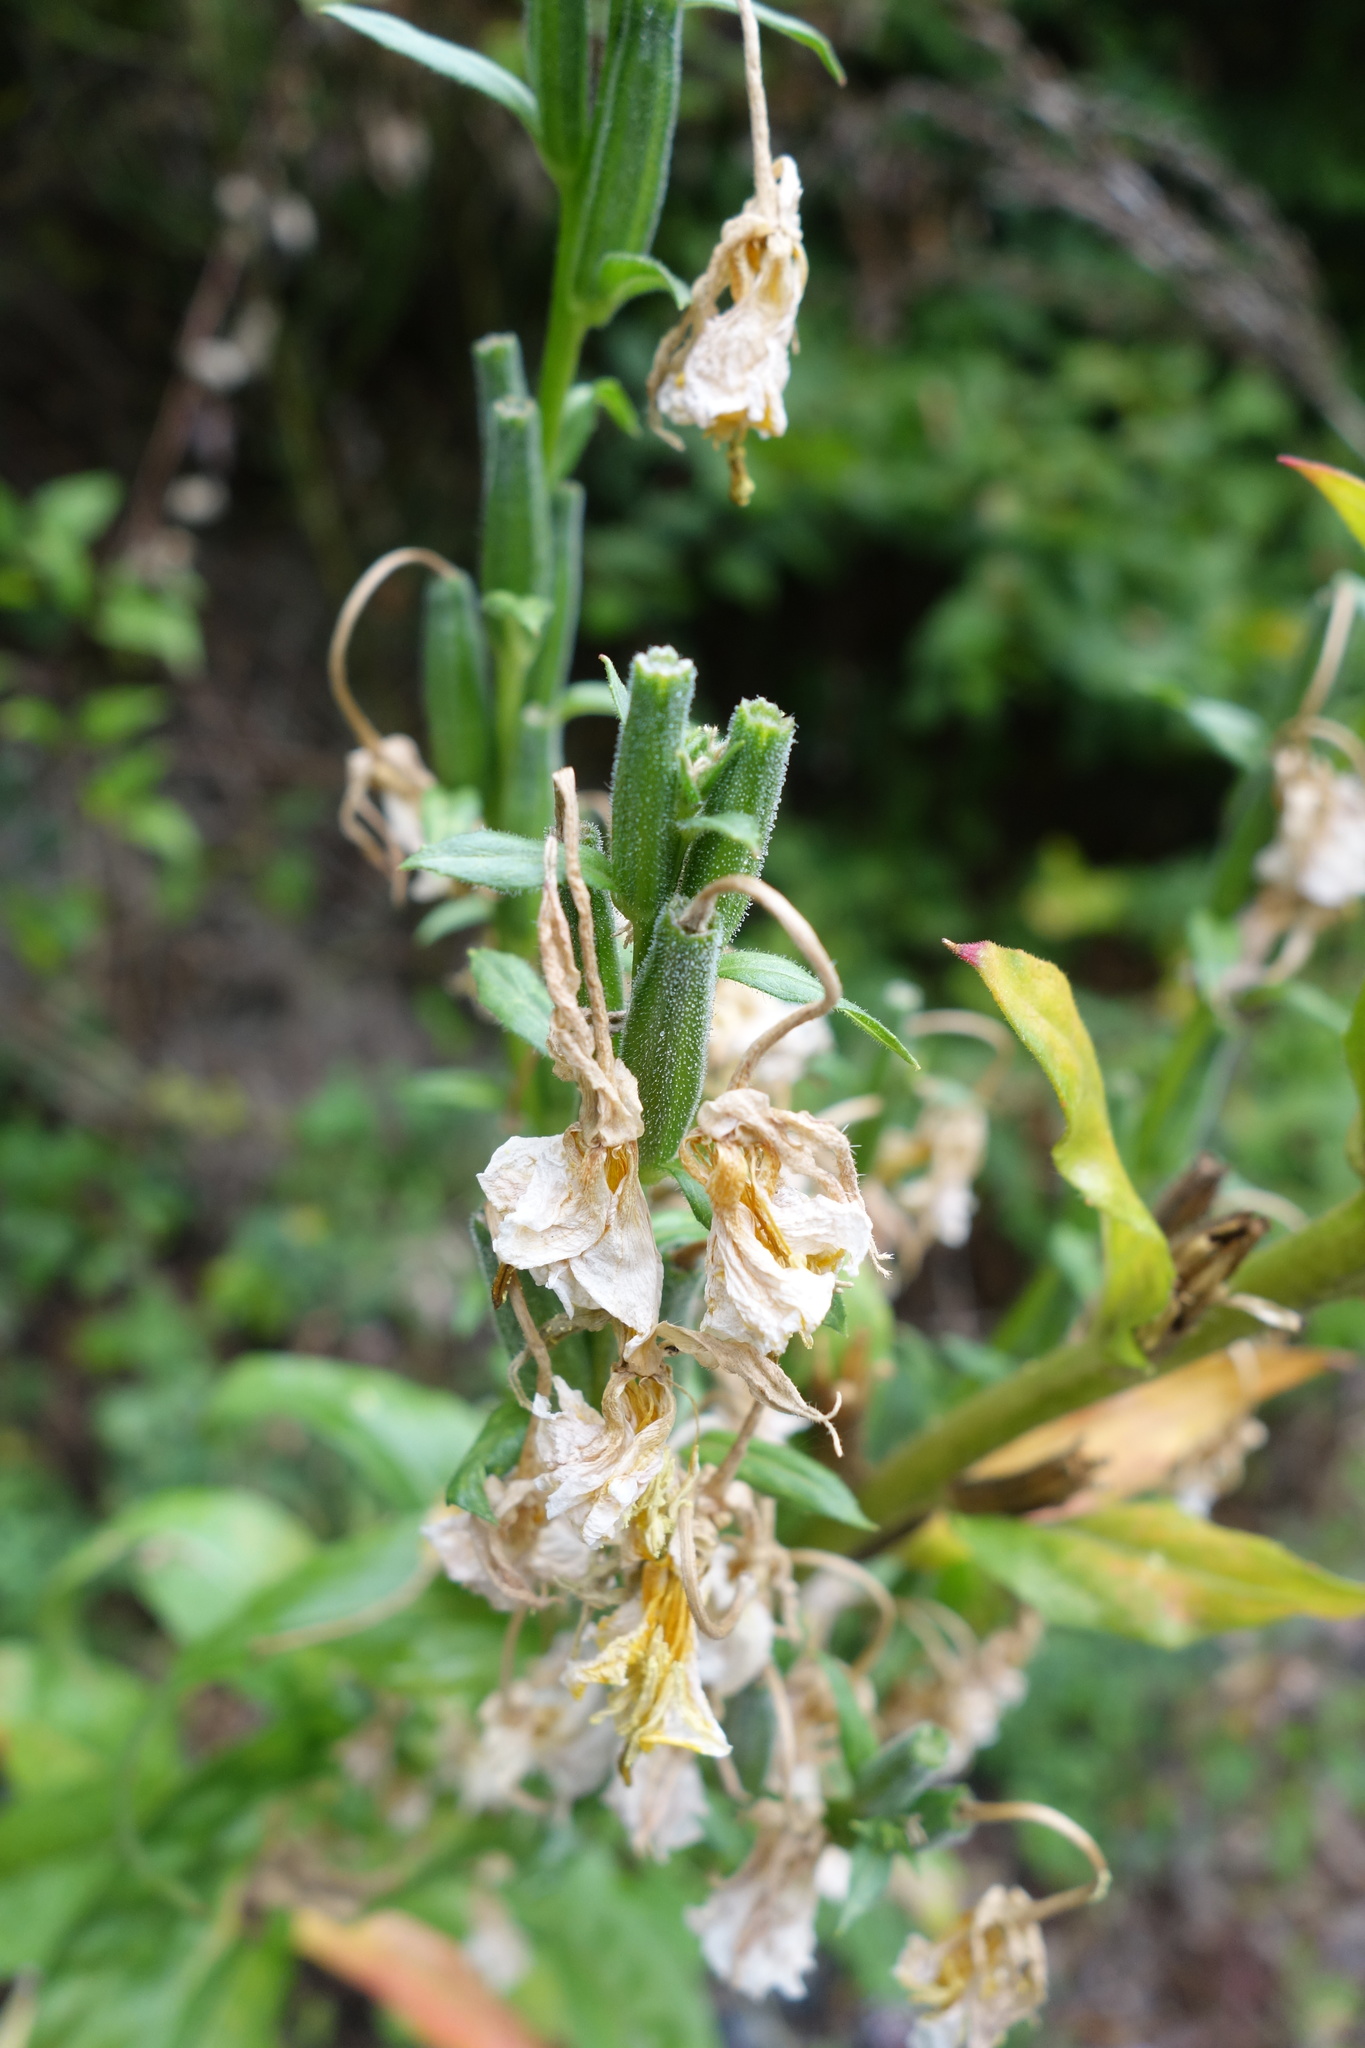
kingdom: Plantae
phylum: Tracheophyta
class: Magnoliopsida
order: Myrtales
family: Onagraceae
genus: Oenothera
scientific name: Oenothera biennis
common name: Common evening-primrose
